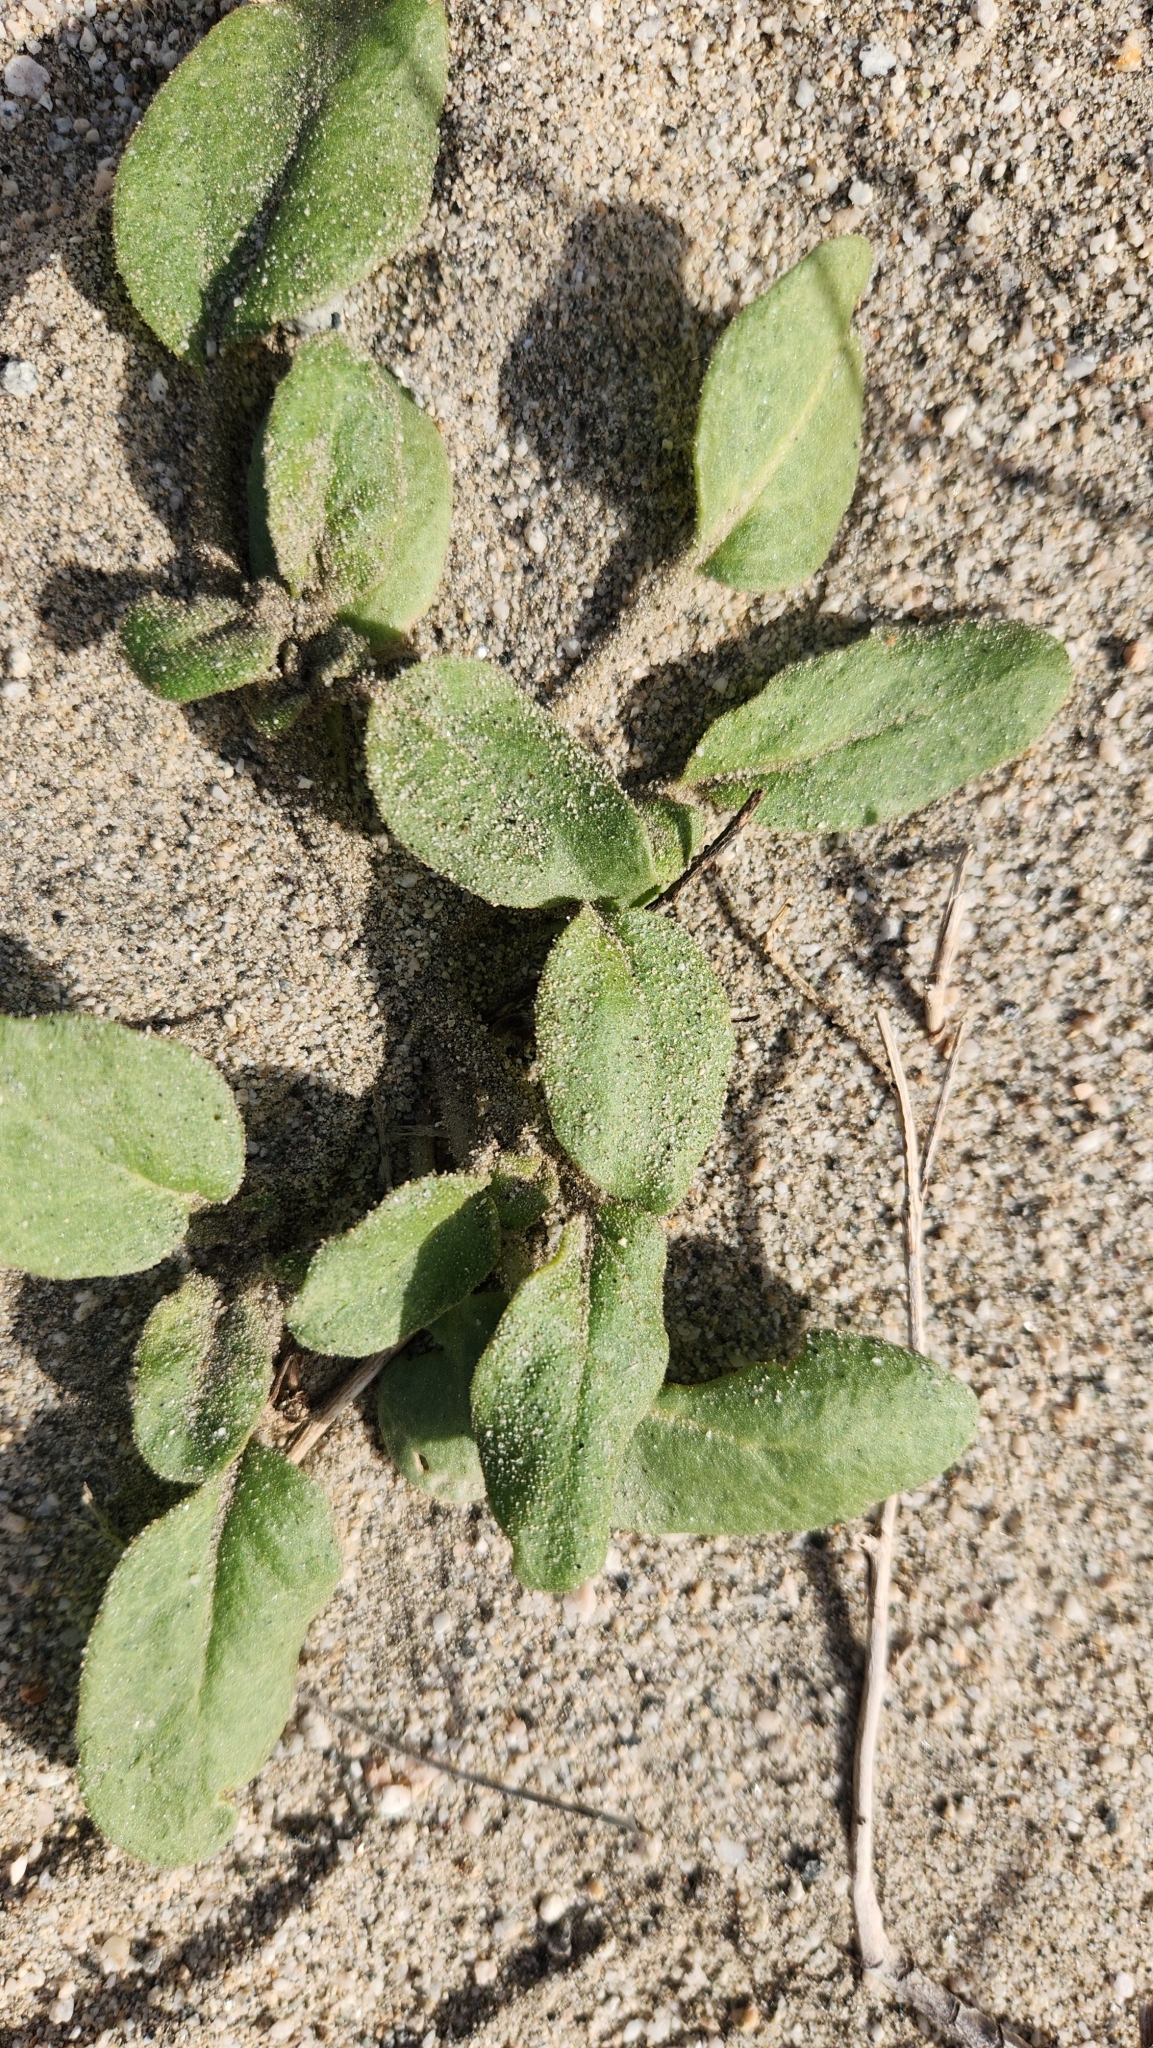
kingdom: Plantae
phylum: Tracheophyta
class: Magnoliopsida
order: Caryophyllales
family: Nyctaginaceae
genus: Abronia
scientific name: Abronia villosa
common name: Desert sand-verbena
